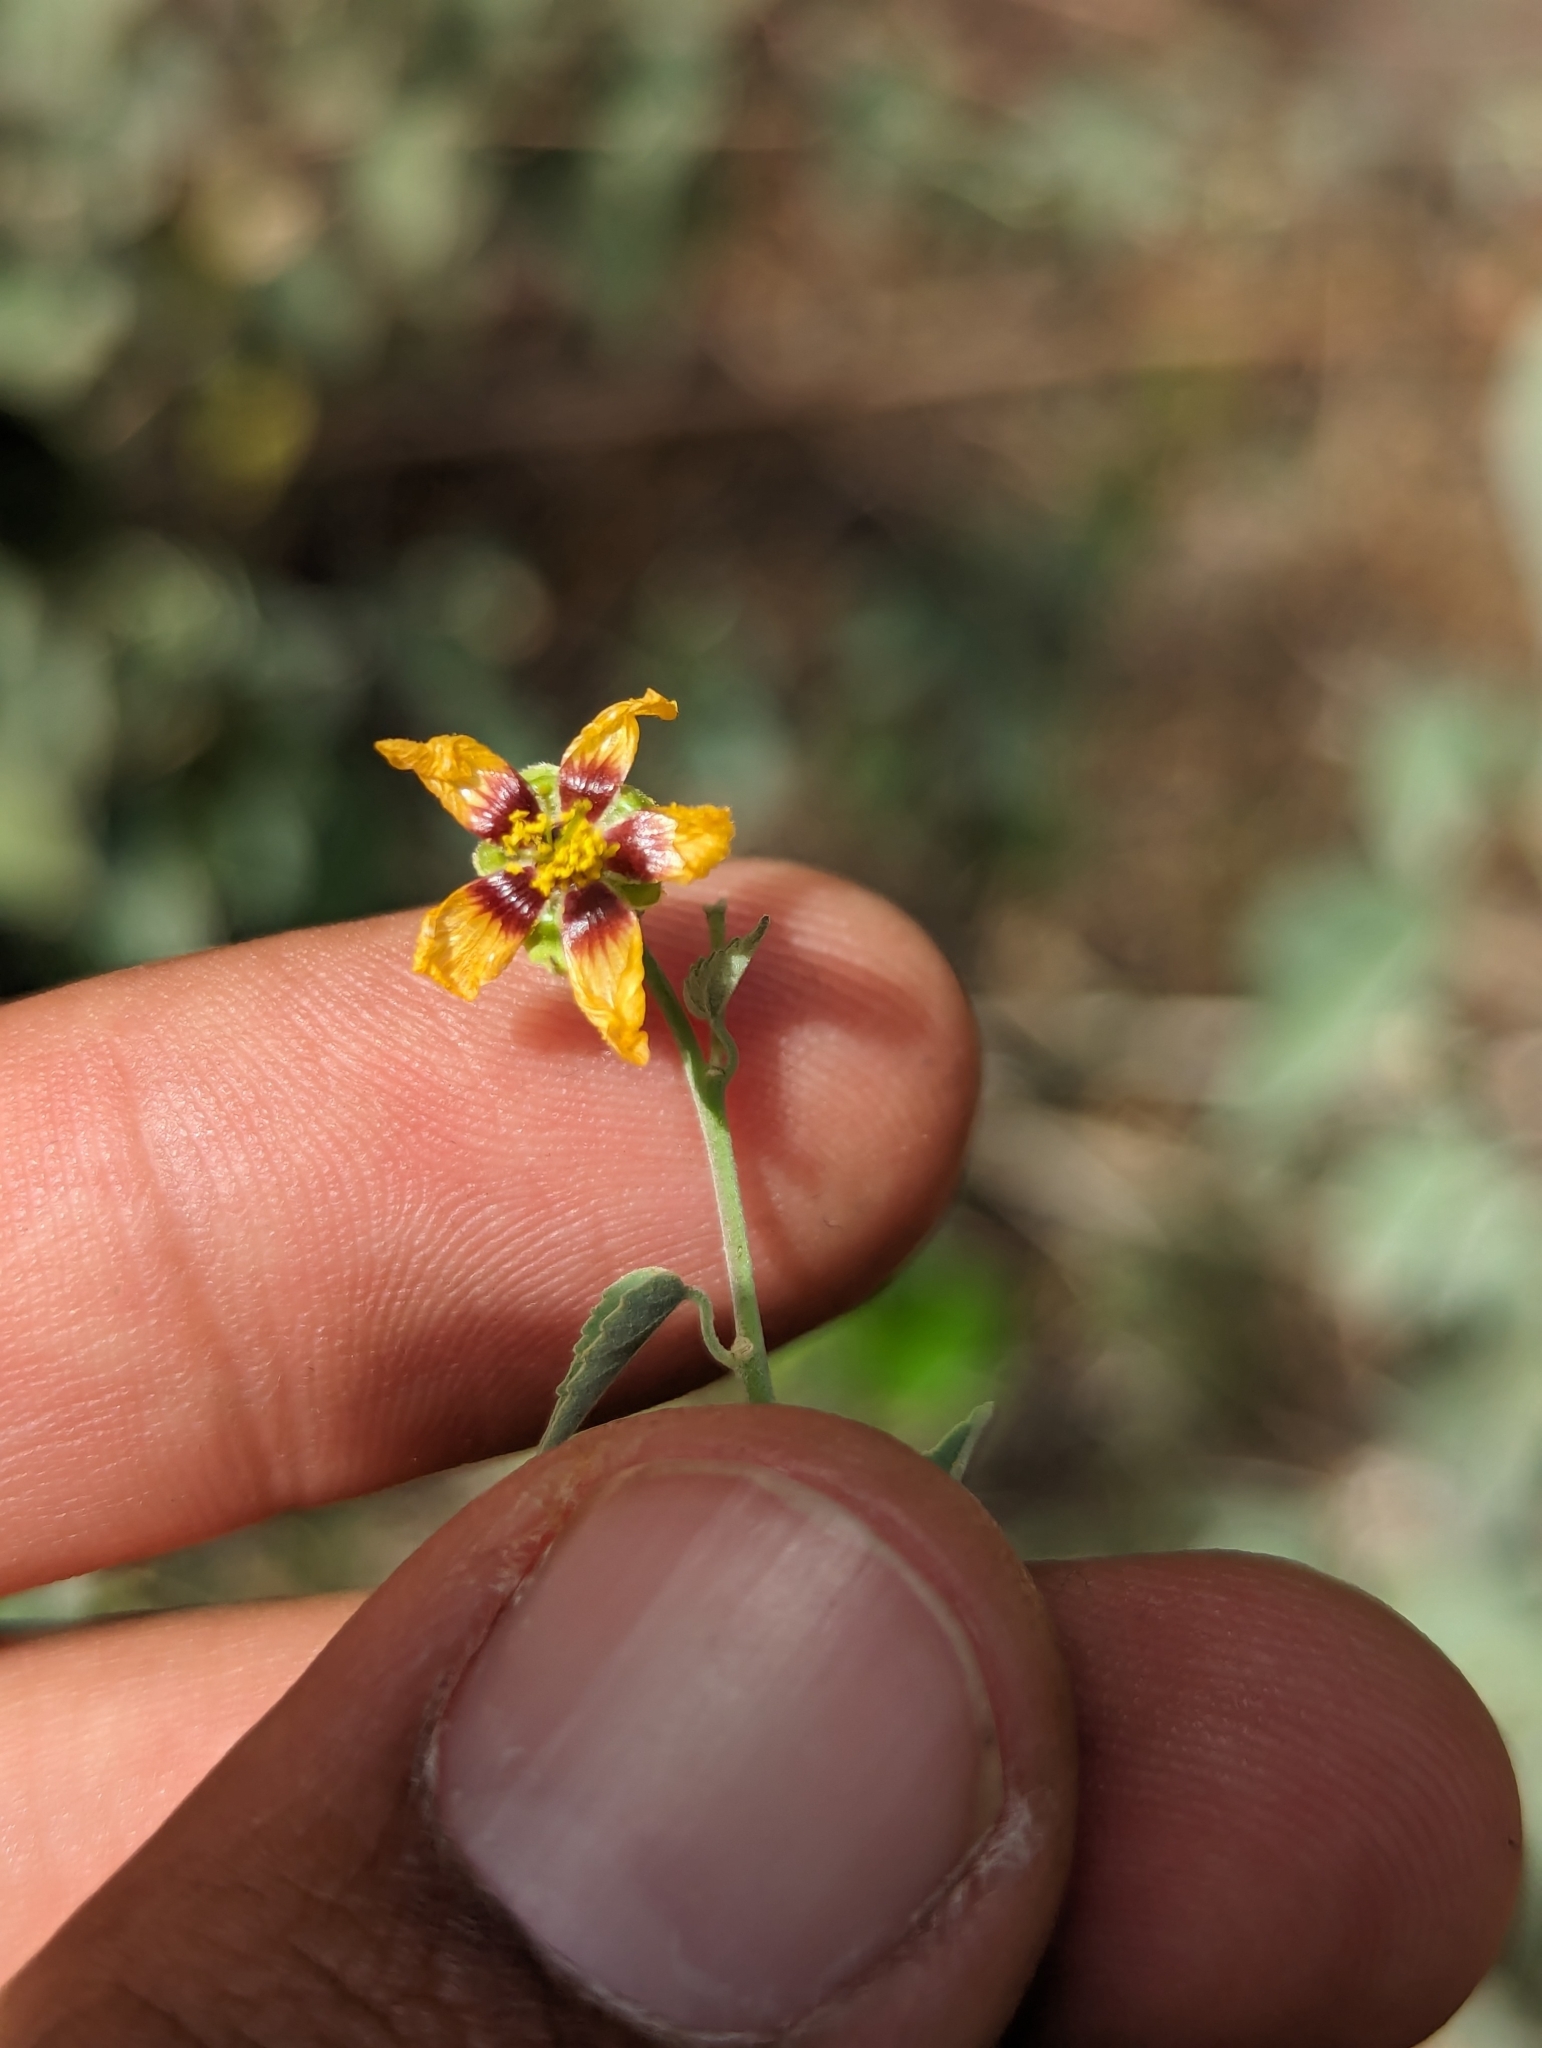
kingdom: Plantae
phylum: Tracheophyta
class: Magnoliopsida
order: Malvales
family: Malvaceae
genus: Abutilon
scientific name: Abutilon incanum
